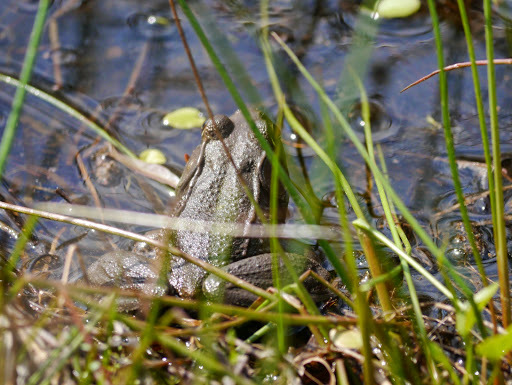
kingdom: Animalia
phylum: Chordata
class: Amphibia
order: Anura
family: Ranidae
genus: Lithobates
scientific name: Lithobates clamitans
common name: Green frog
